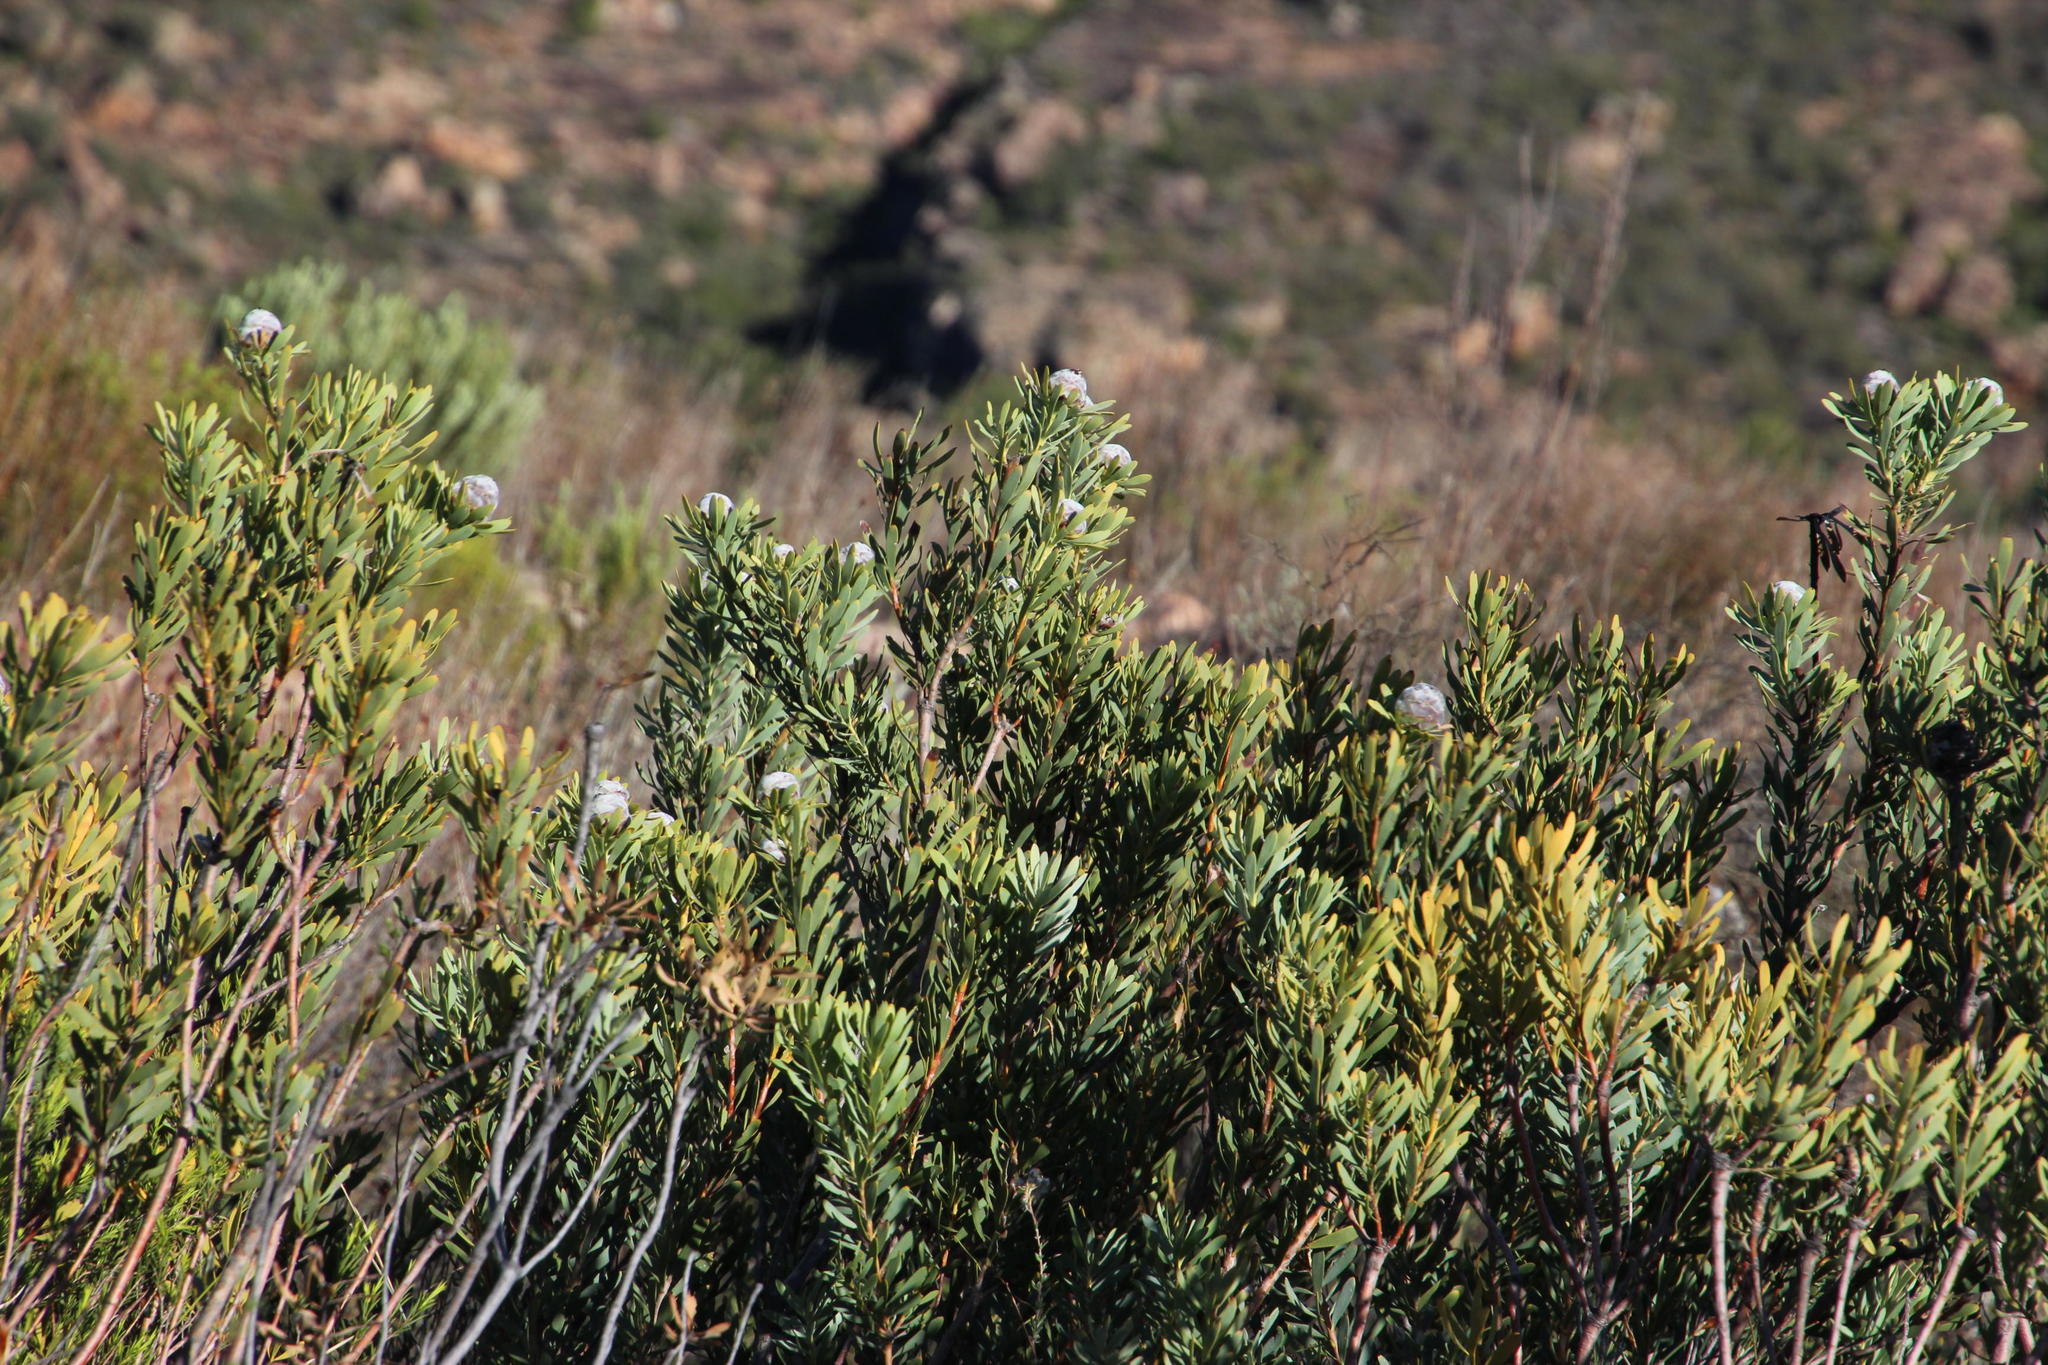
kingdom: Plantae
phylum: Tracheophyta
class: Magnoliopsida
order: Proteales
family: Proteaceae
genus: Leucadendron
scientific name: Leucadendron pubescens
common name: Grey conebush
